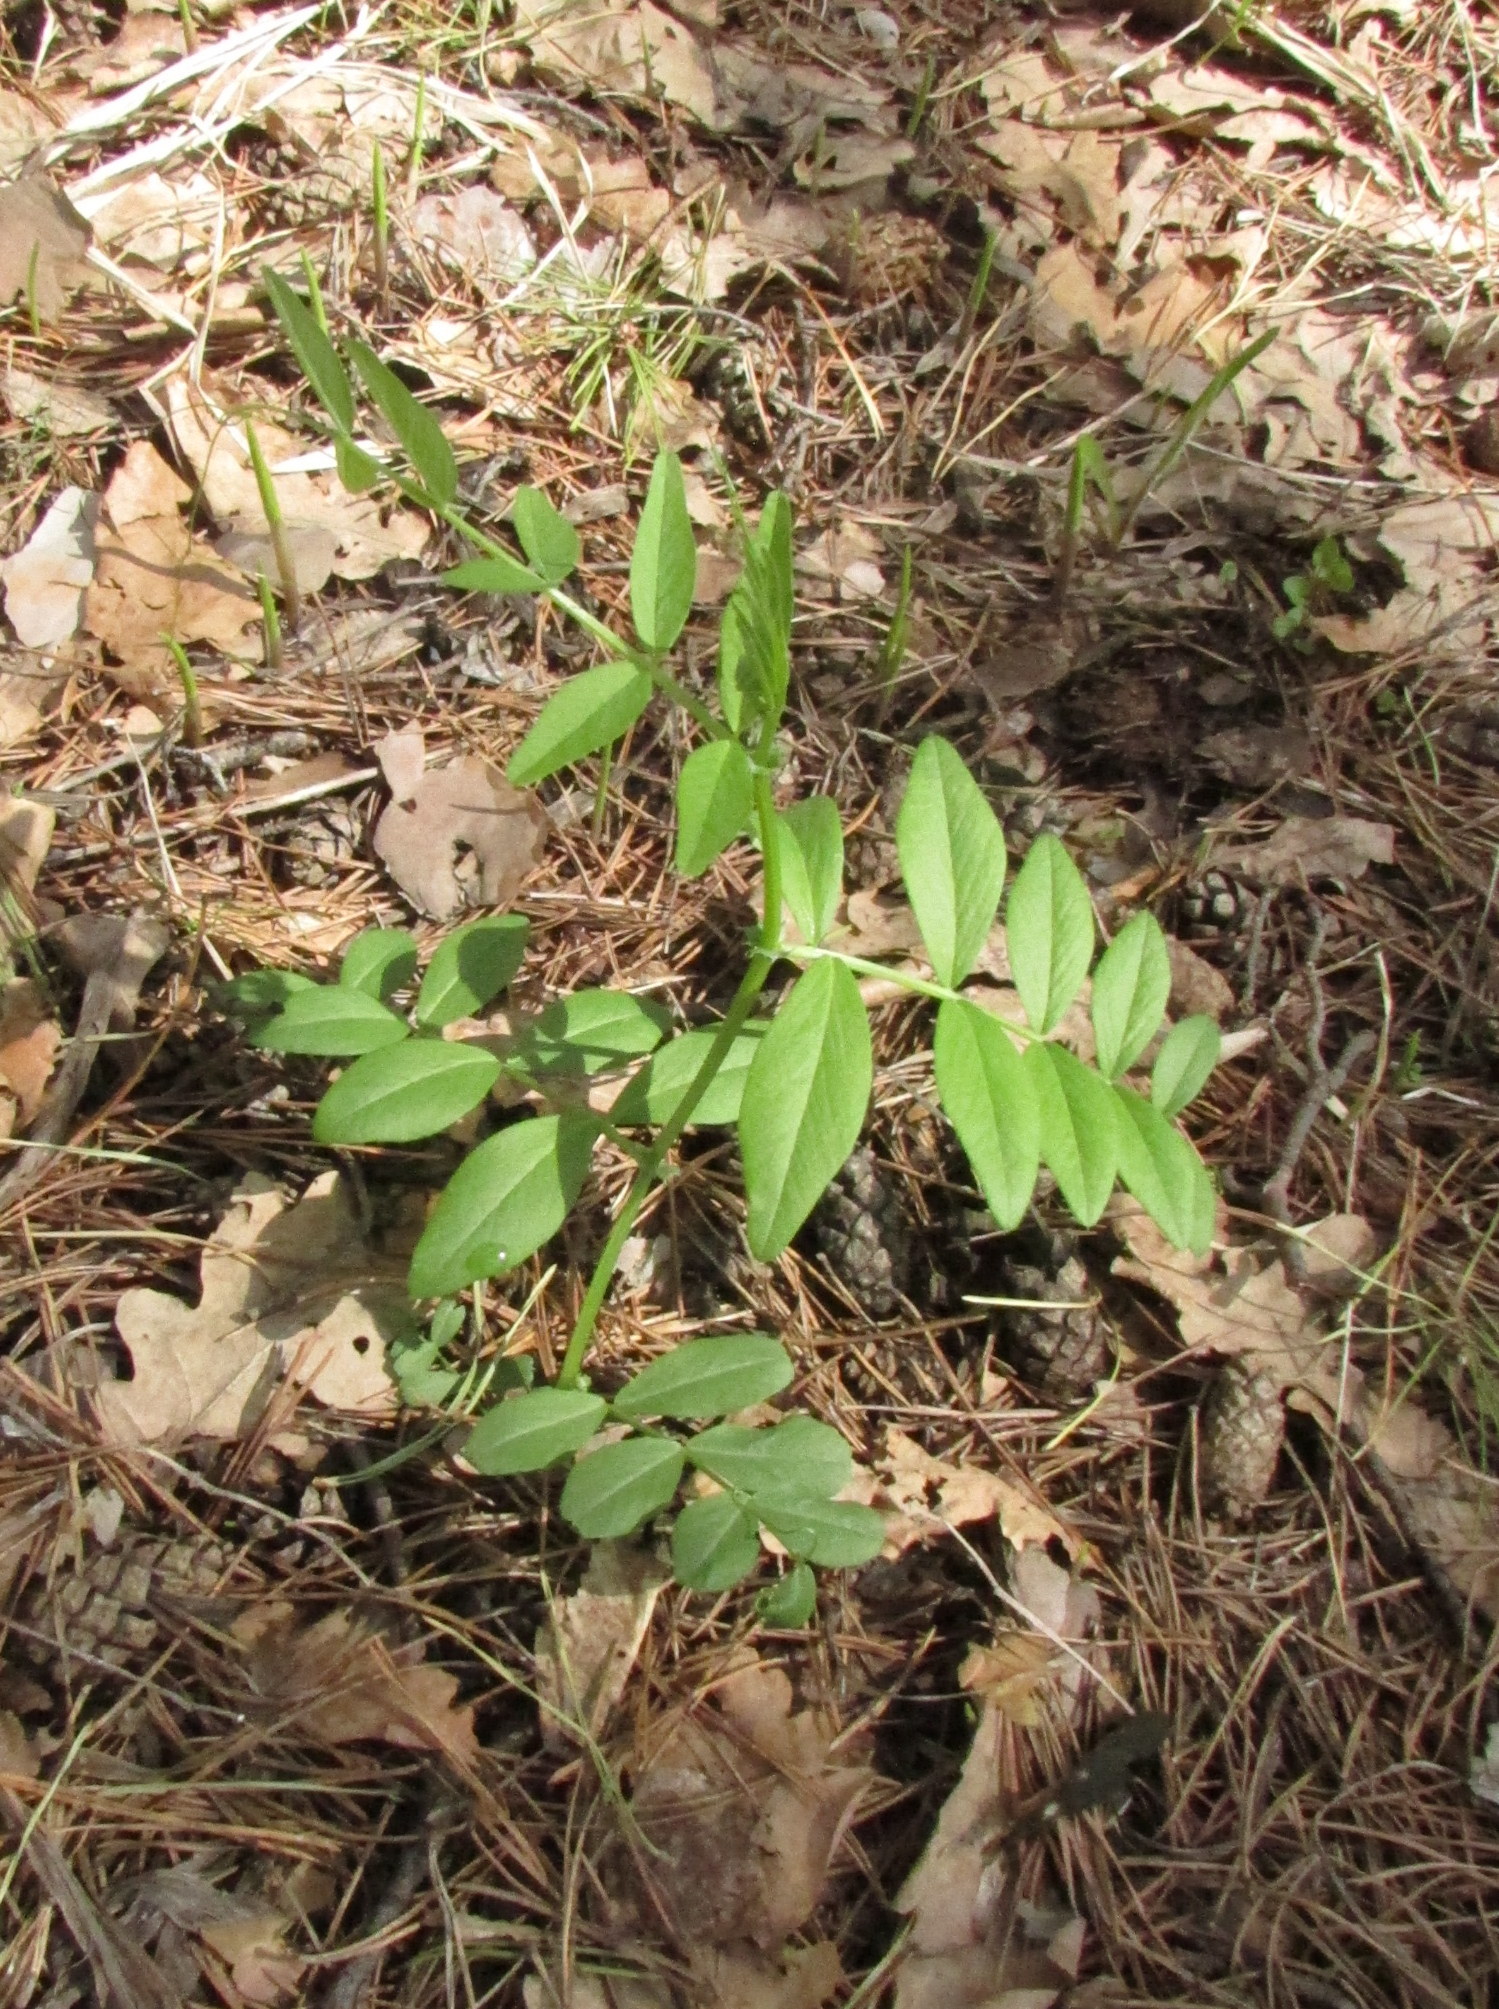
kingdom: Plantae
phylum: Tracheophyta
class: Magnoliopsida
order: Fabales
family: Fabaceae
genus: Vicia
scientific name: Vicia sepium
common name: Bush vetch
